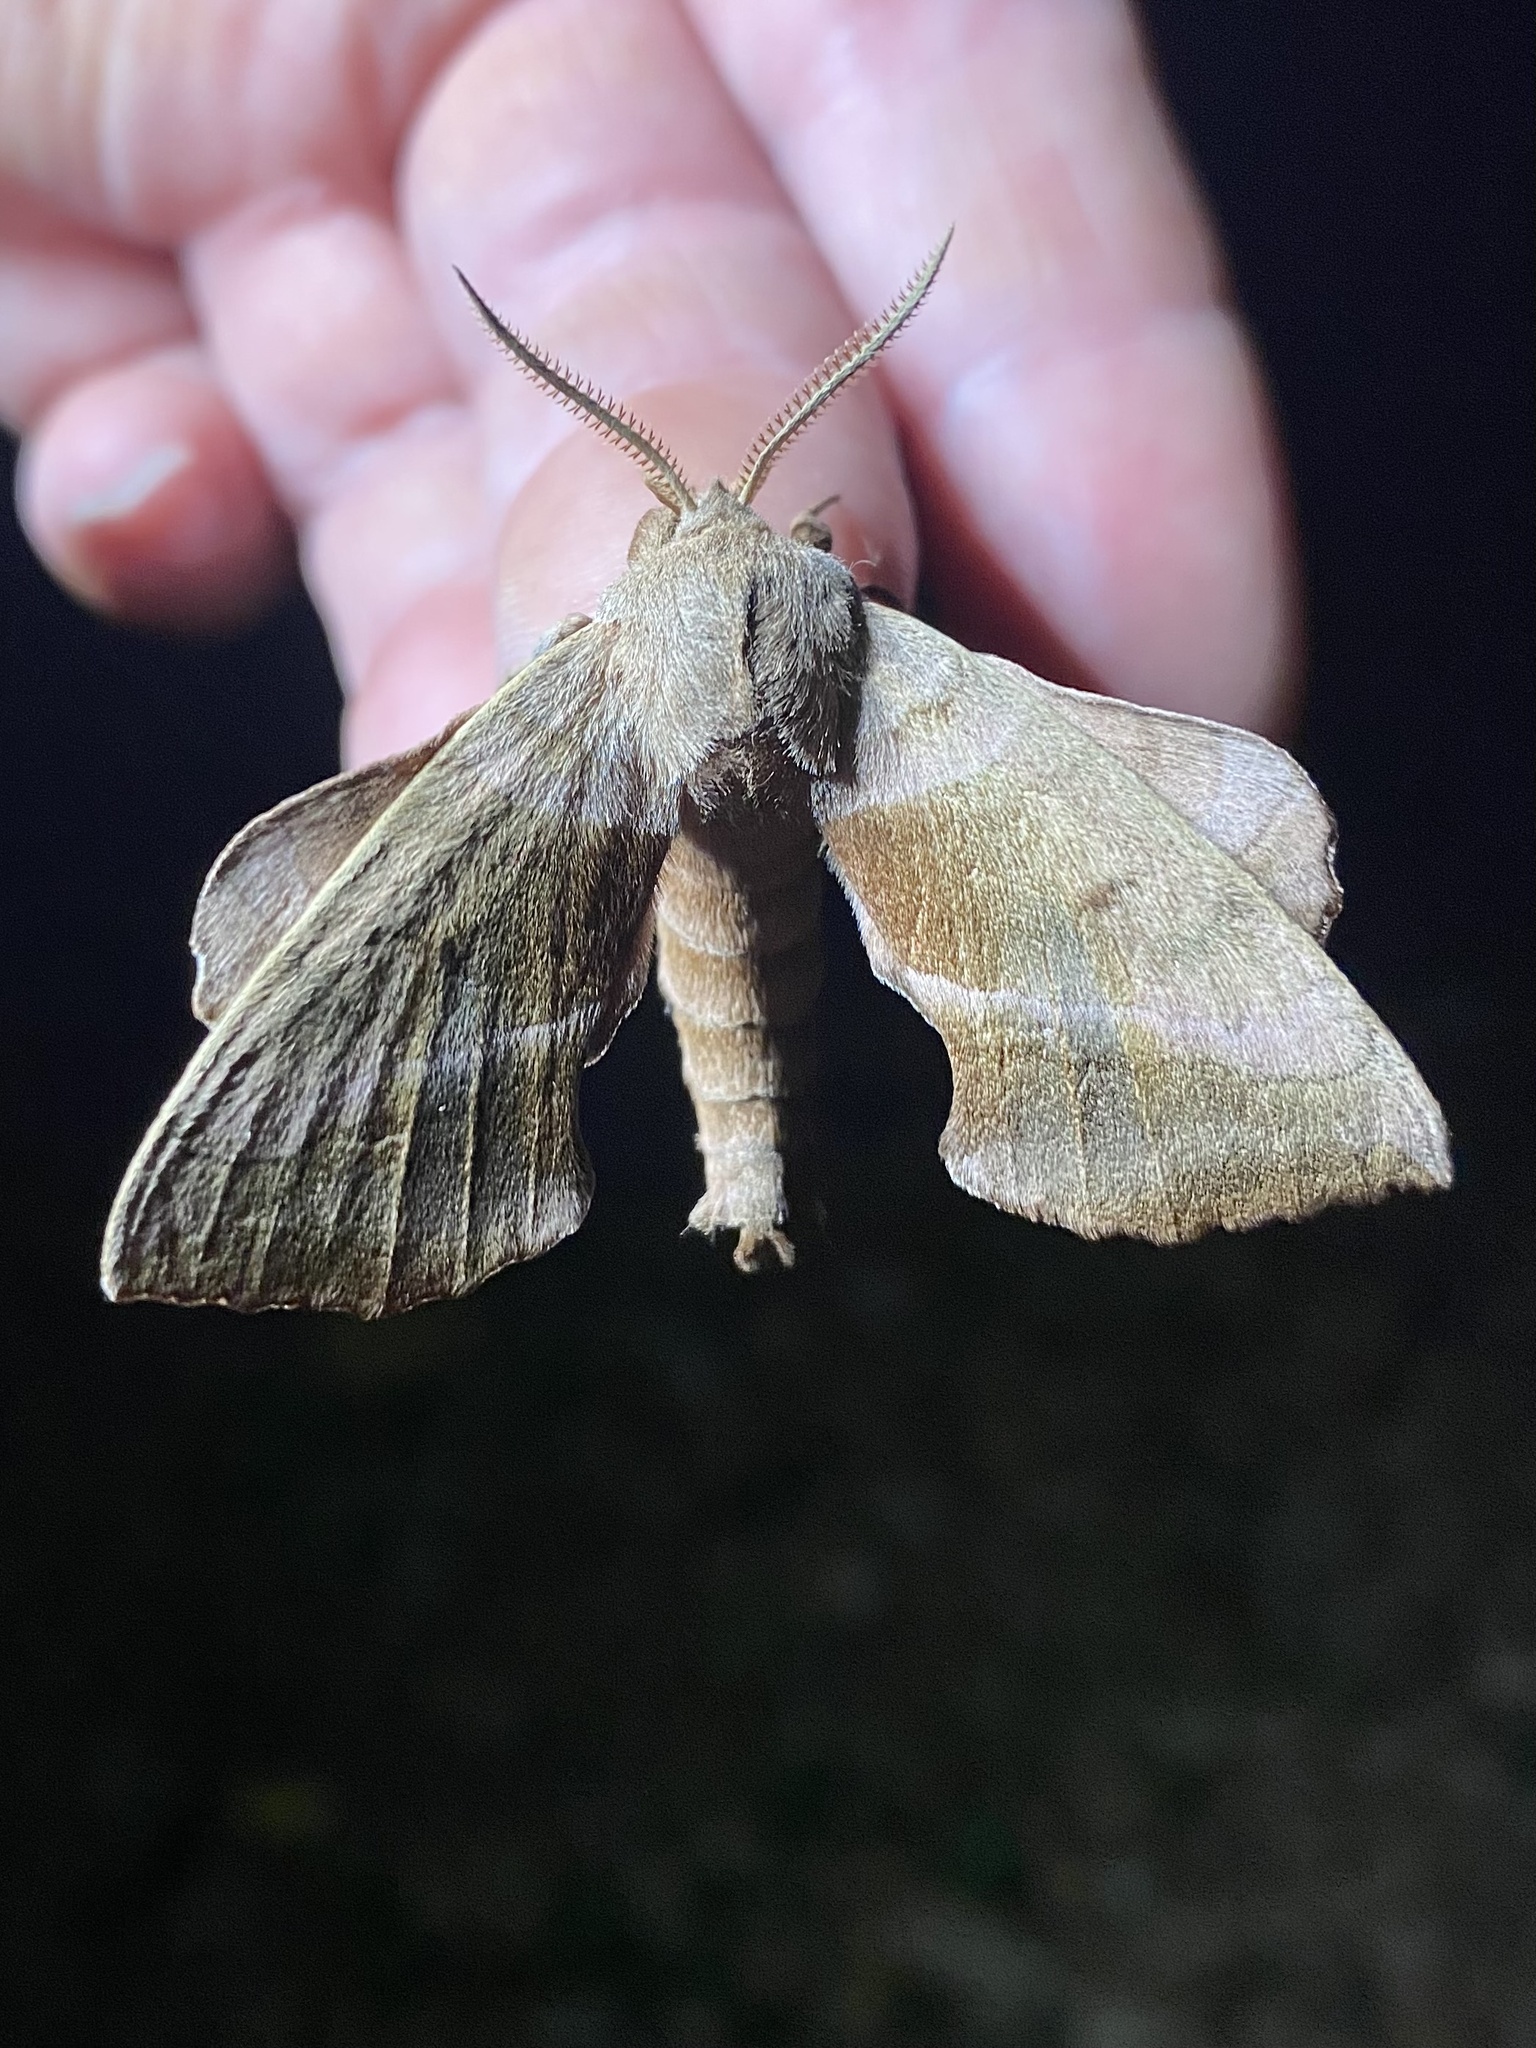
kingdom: Animalia
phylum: Arthropoda
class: Insecta
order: Lepidoptera
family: Sphingidae
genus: Amorpha
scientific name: Amorpha juglandis
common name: Walnut sphinx
